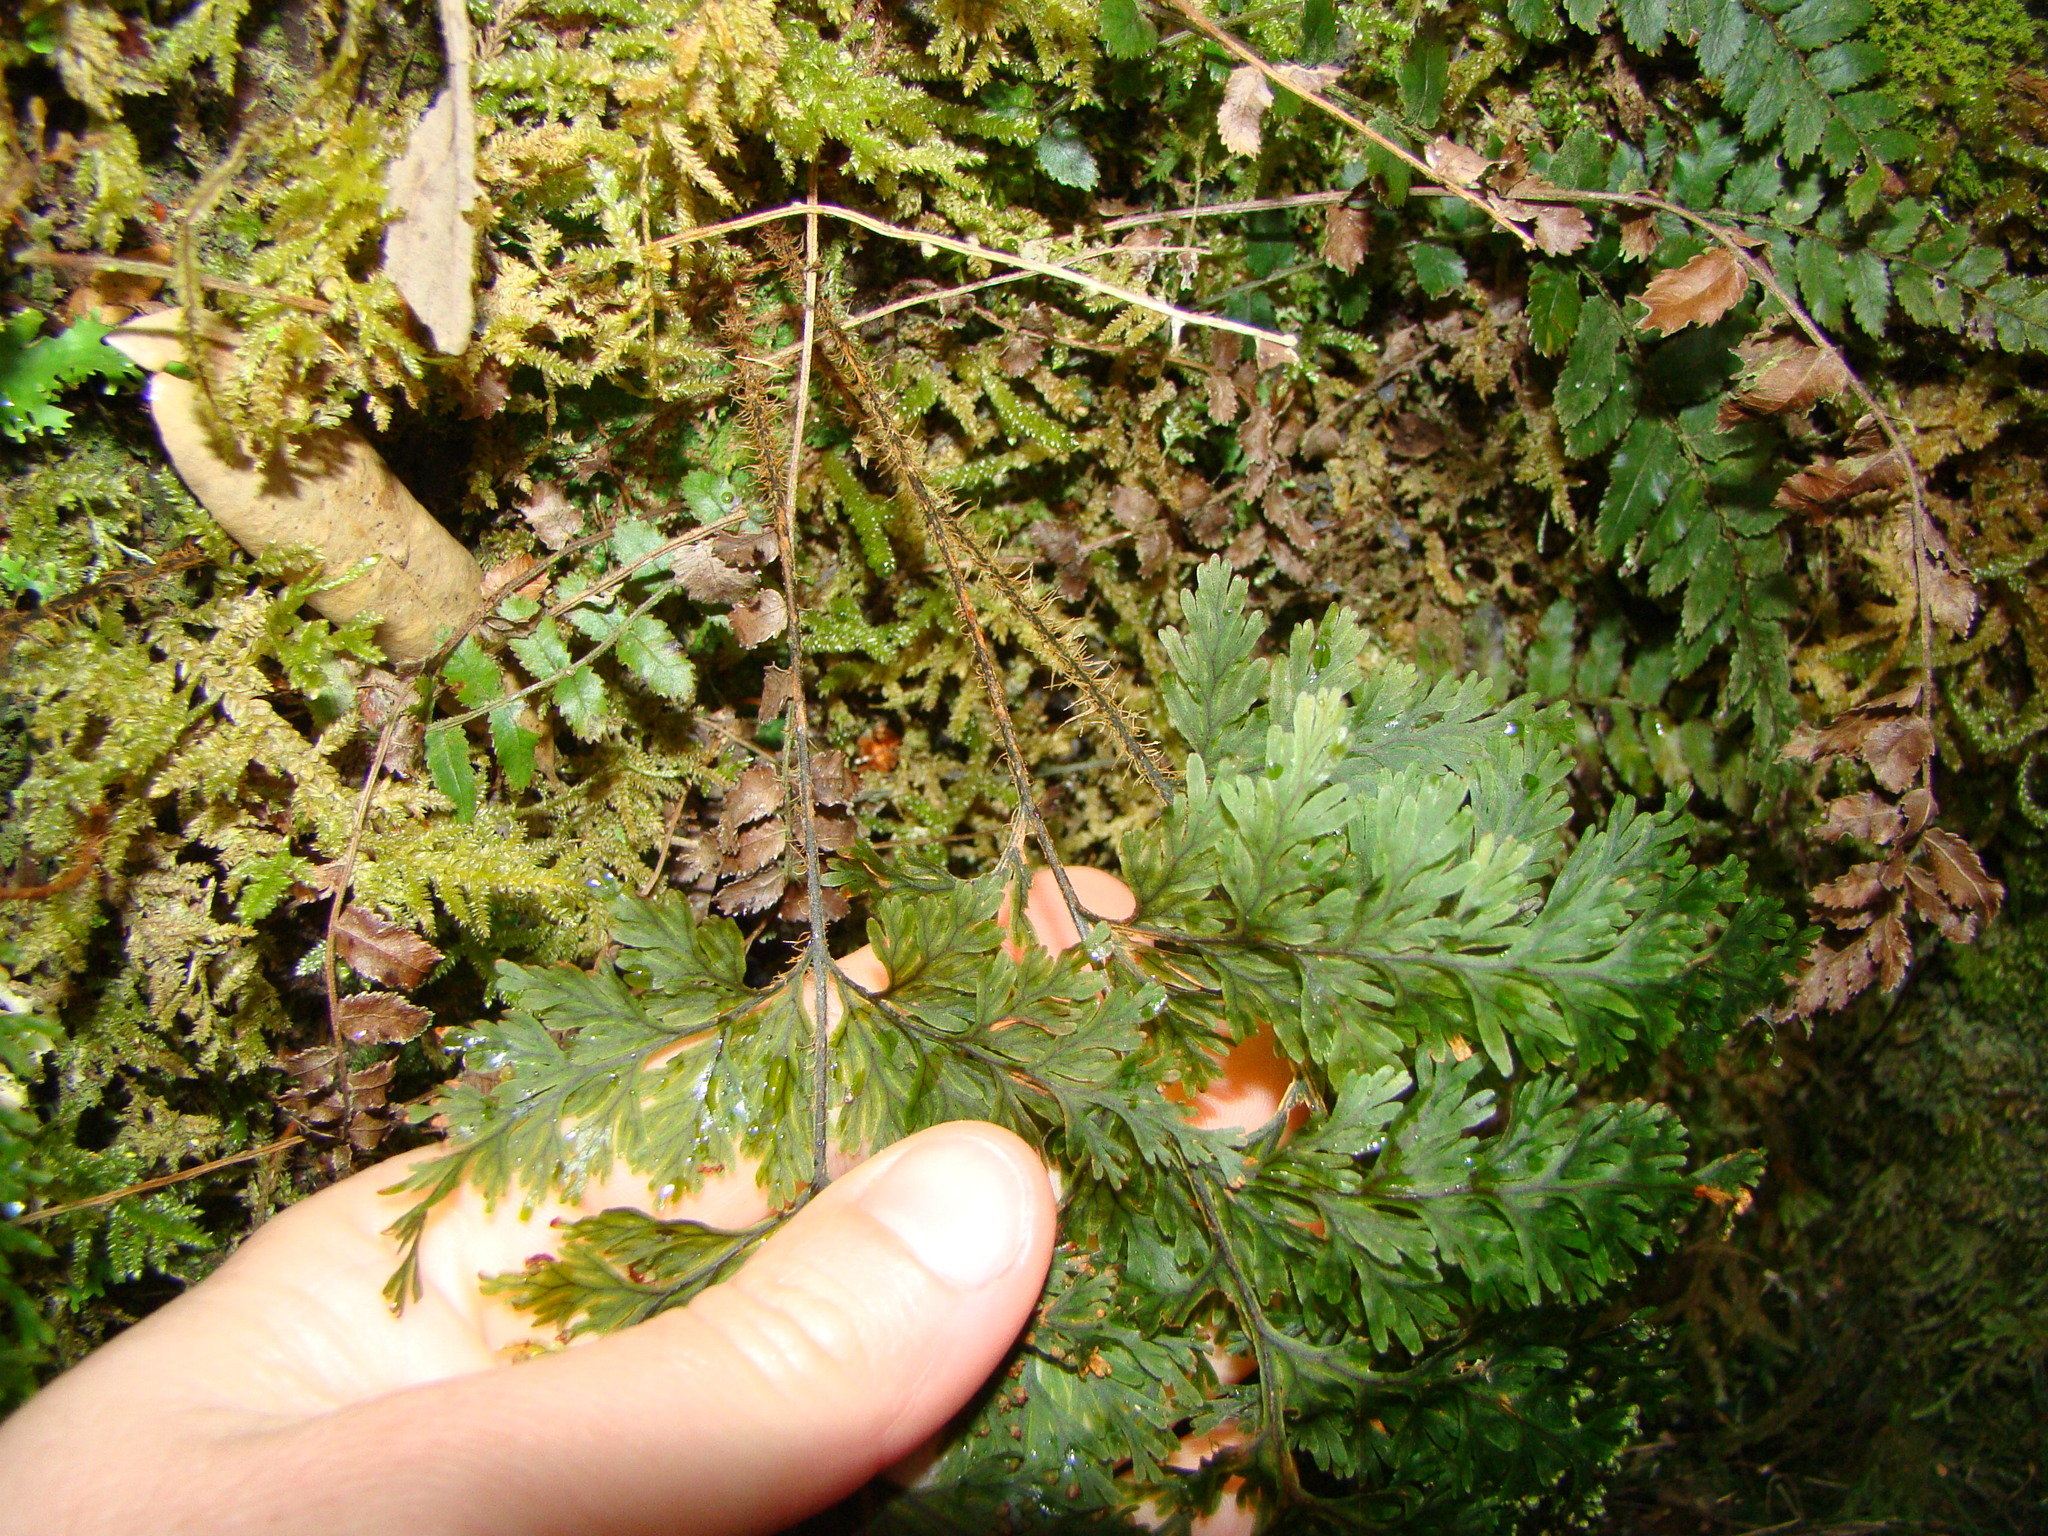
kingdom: Plantae
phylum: Tracheophyta
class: Polypodiopsida
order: Hymenophyllales
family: Hymenophyllaceae
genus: Hymenophyllum
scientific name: Hymenophyllum scabrum
